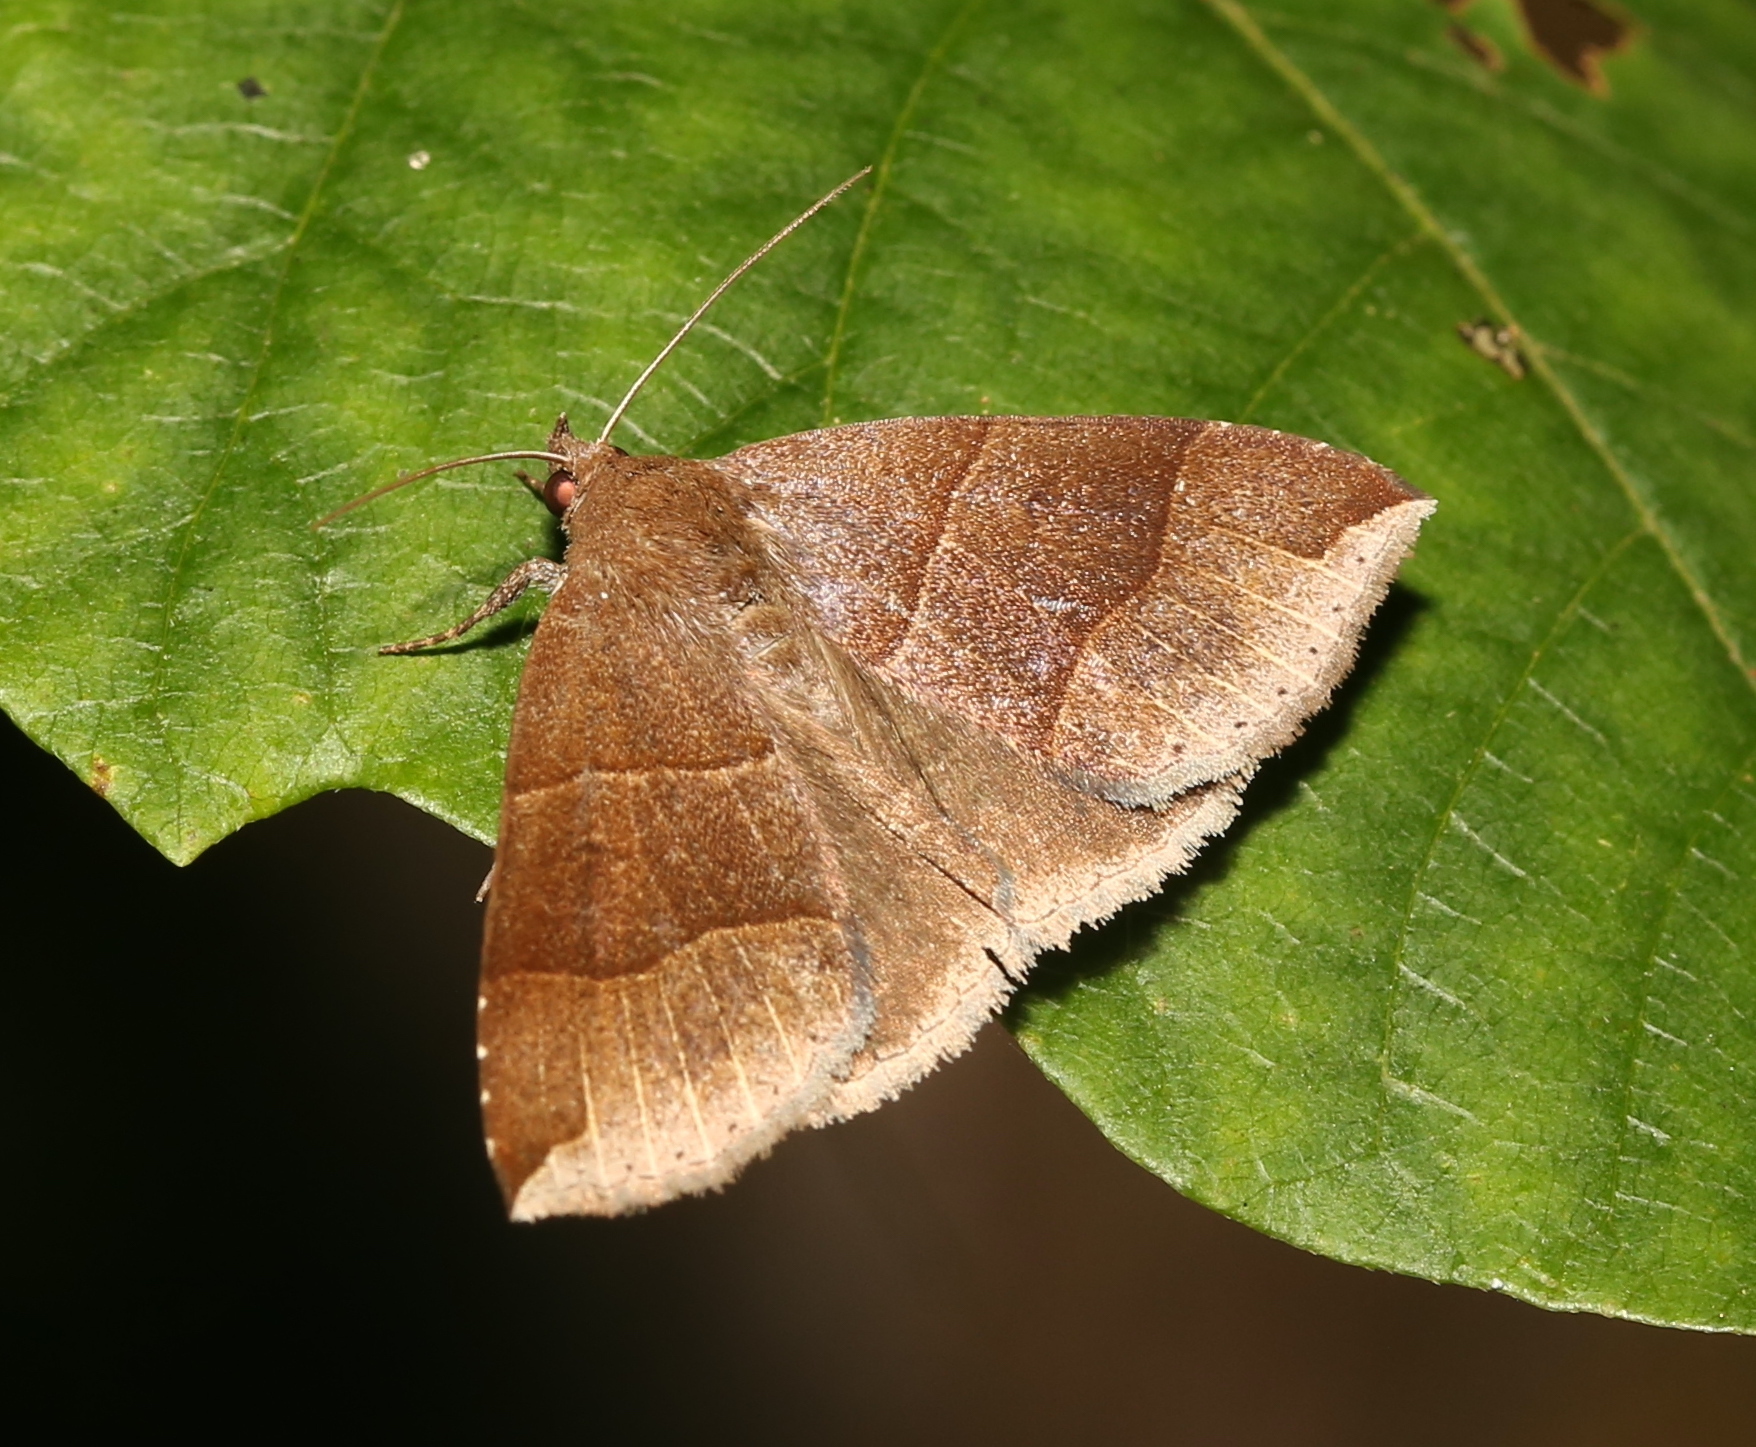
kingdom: Animalia
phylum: Arthropoda
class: Insecta
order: Lepidoptera
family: Erebidae
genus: Parallelia
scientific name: Parallelia bistriaris
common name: Maple looper moth
